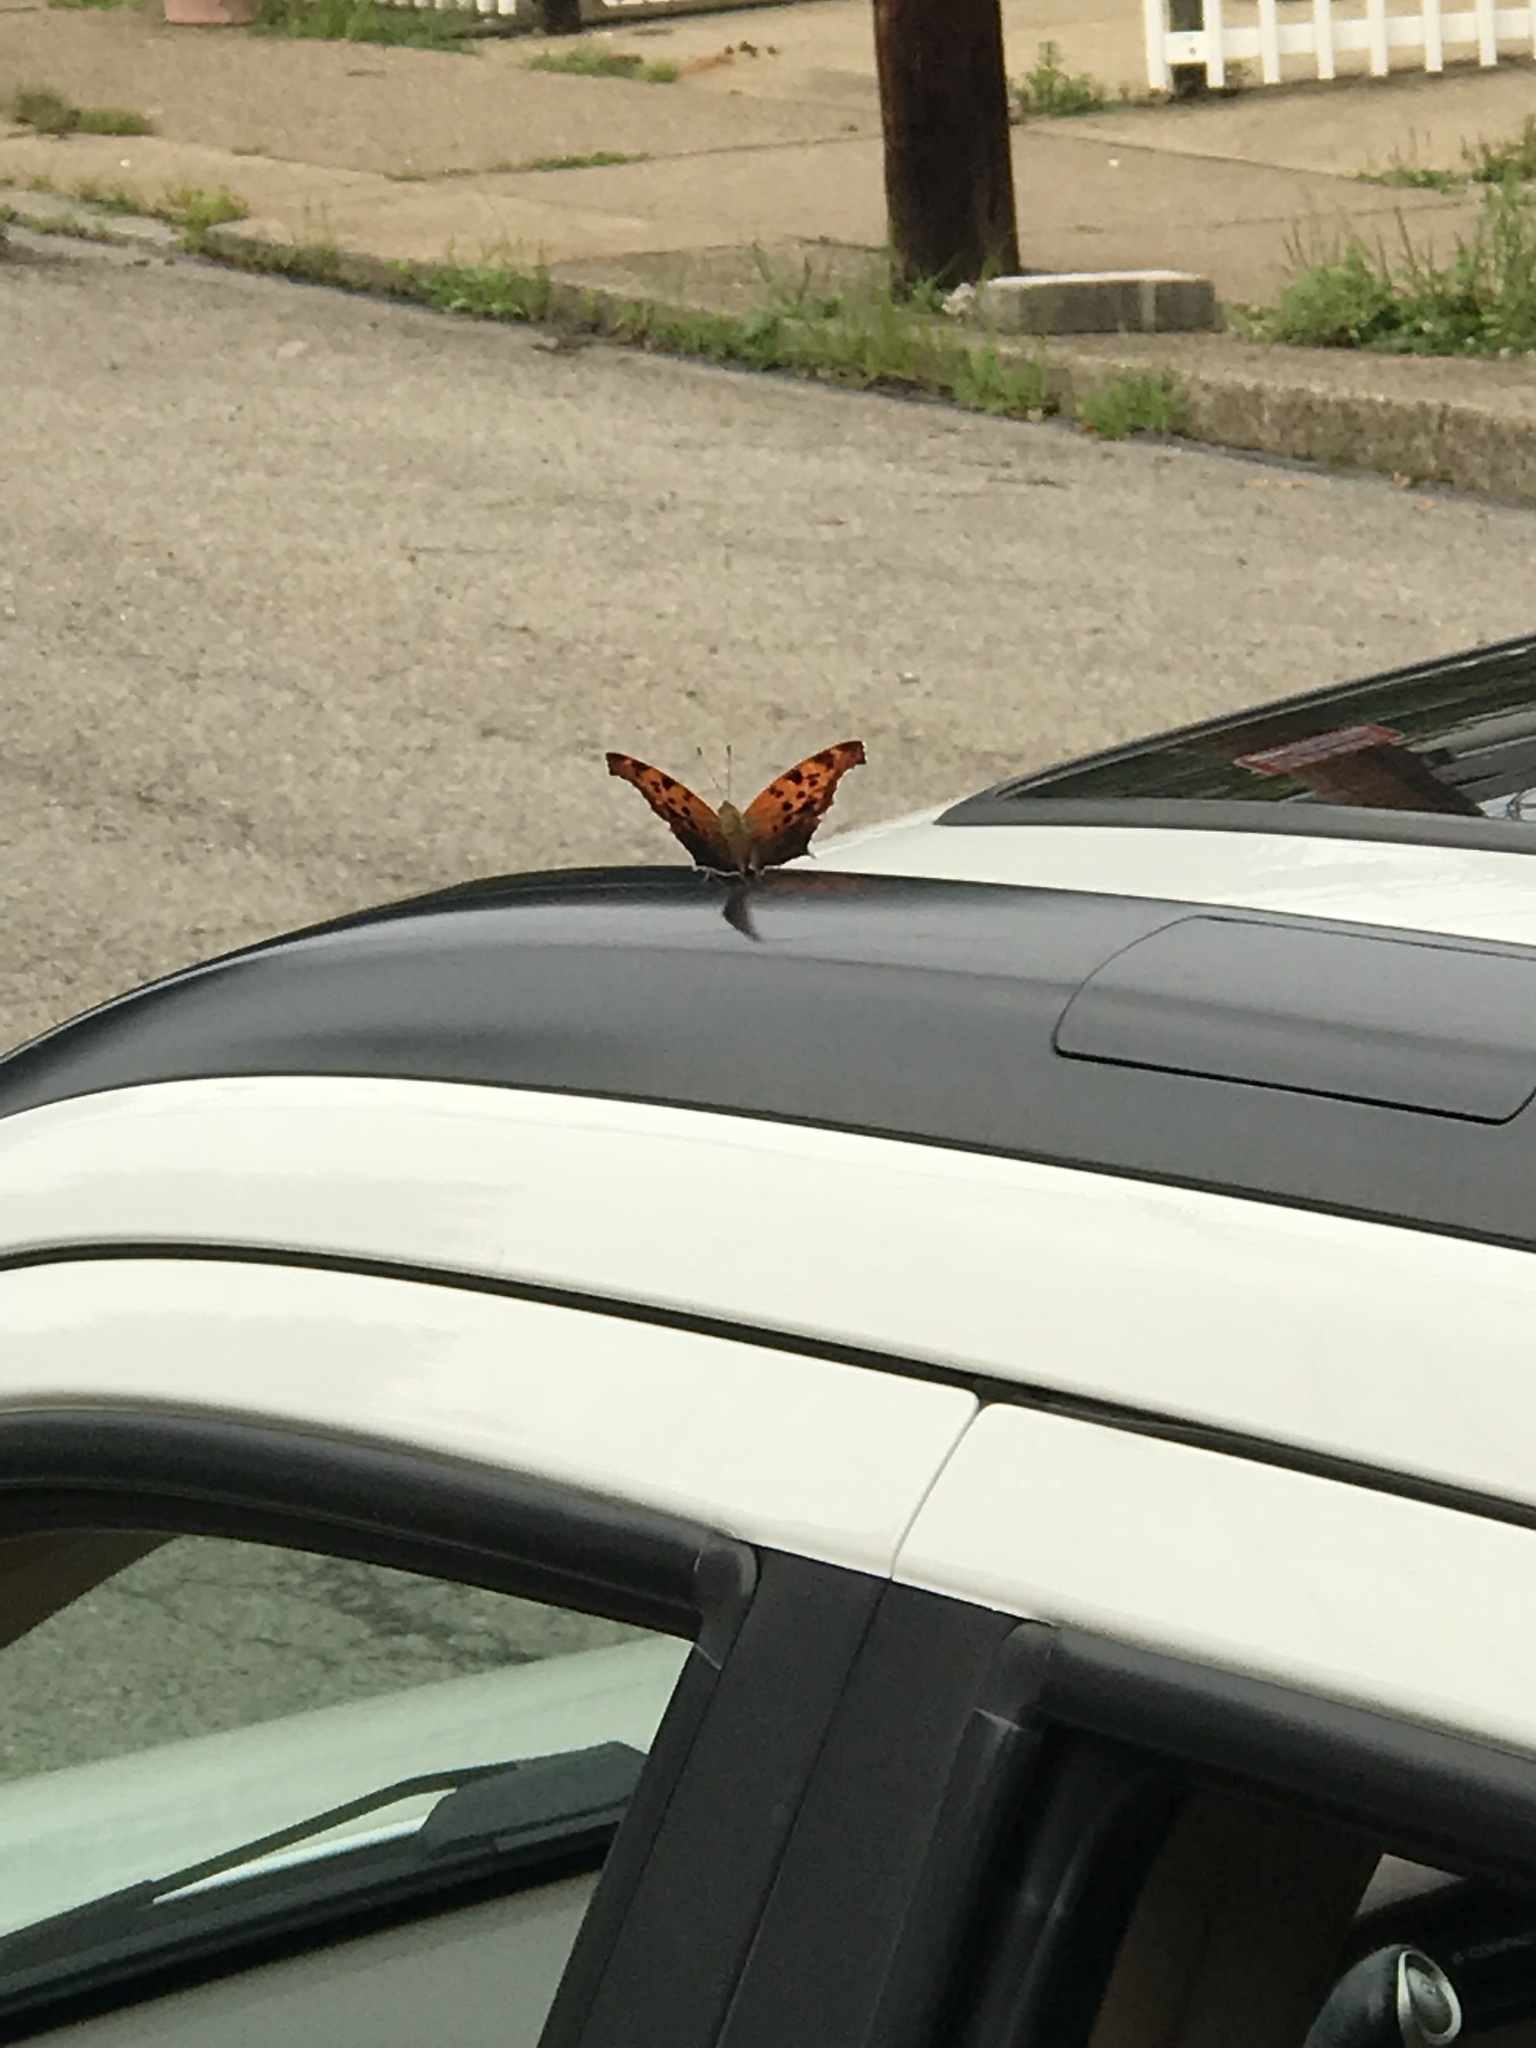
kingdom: Animalia
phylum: Arthropoda
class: Insecta
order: Lepidoptera
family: Nymphalidae
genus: Polygonia
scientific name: Polygonia interrogationis
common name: Question mark
